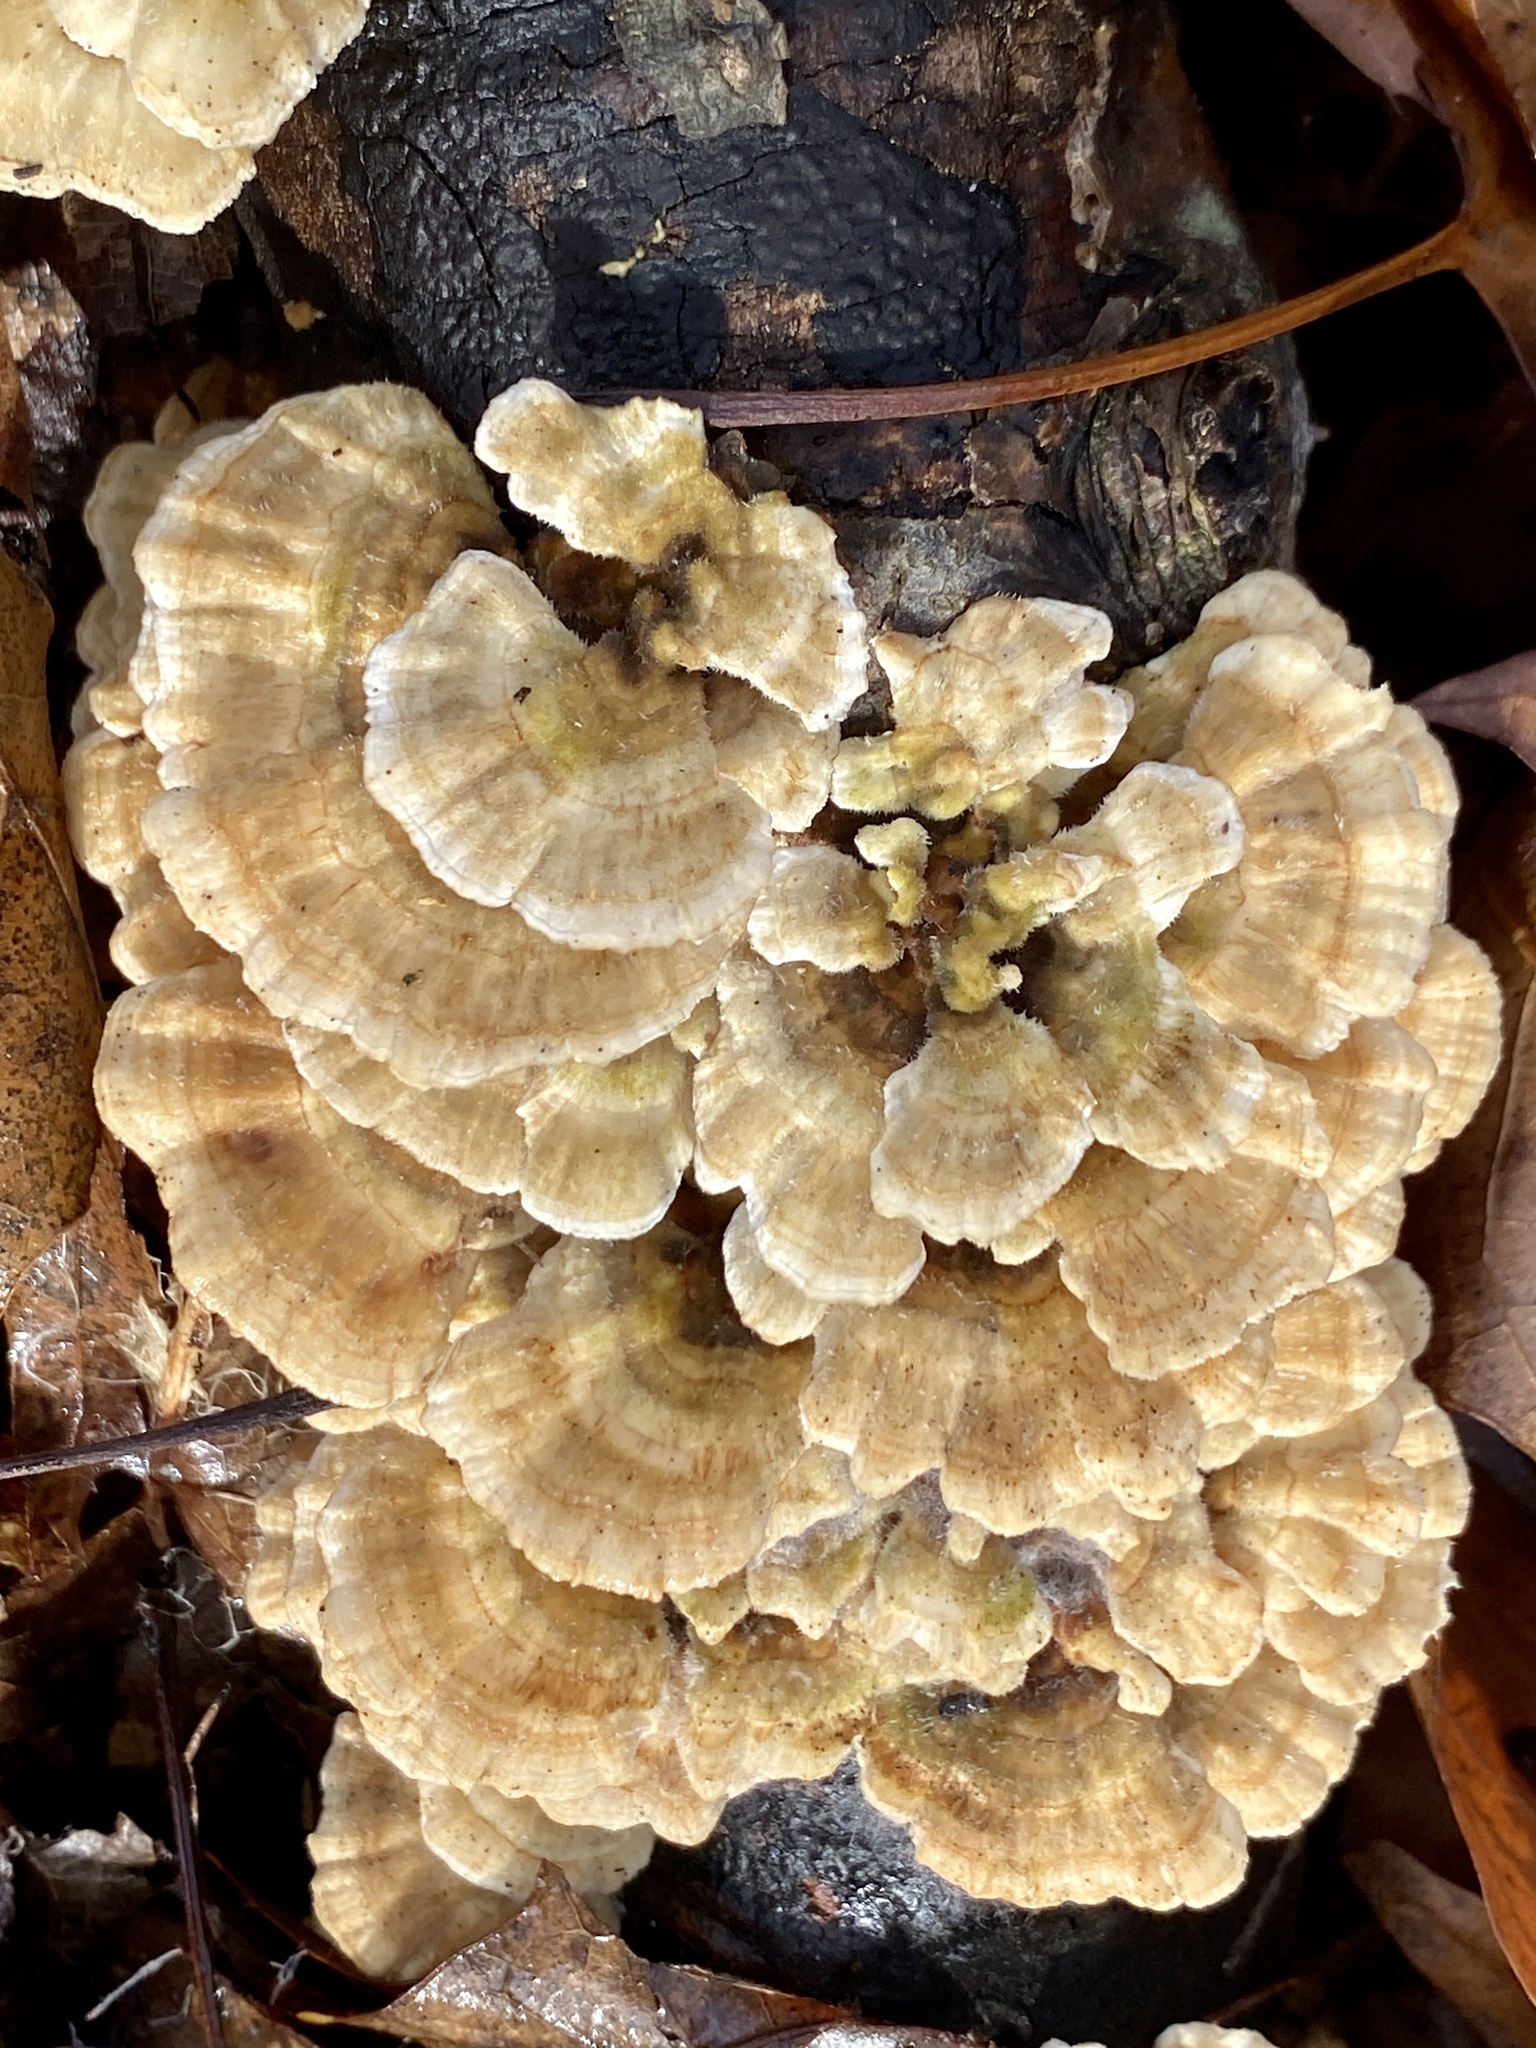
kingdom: Fungi
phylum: Basidiomycota
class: Agaricomycetes
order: Polyporales
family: Polyporaceae
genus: Trametes
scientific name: Trametes ochracea
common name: Ochre bracket
